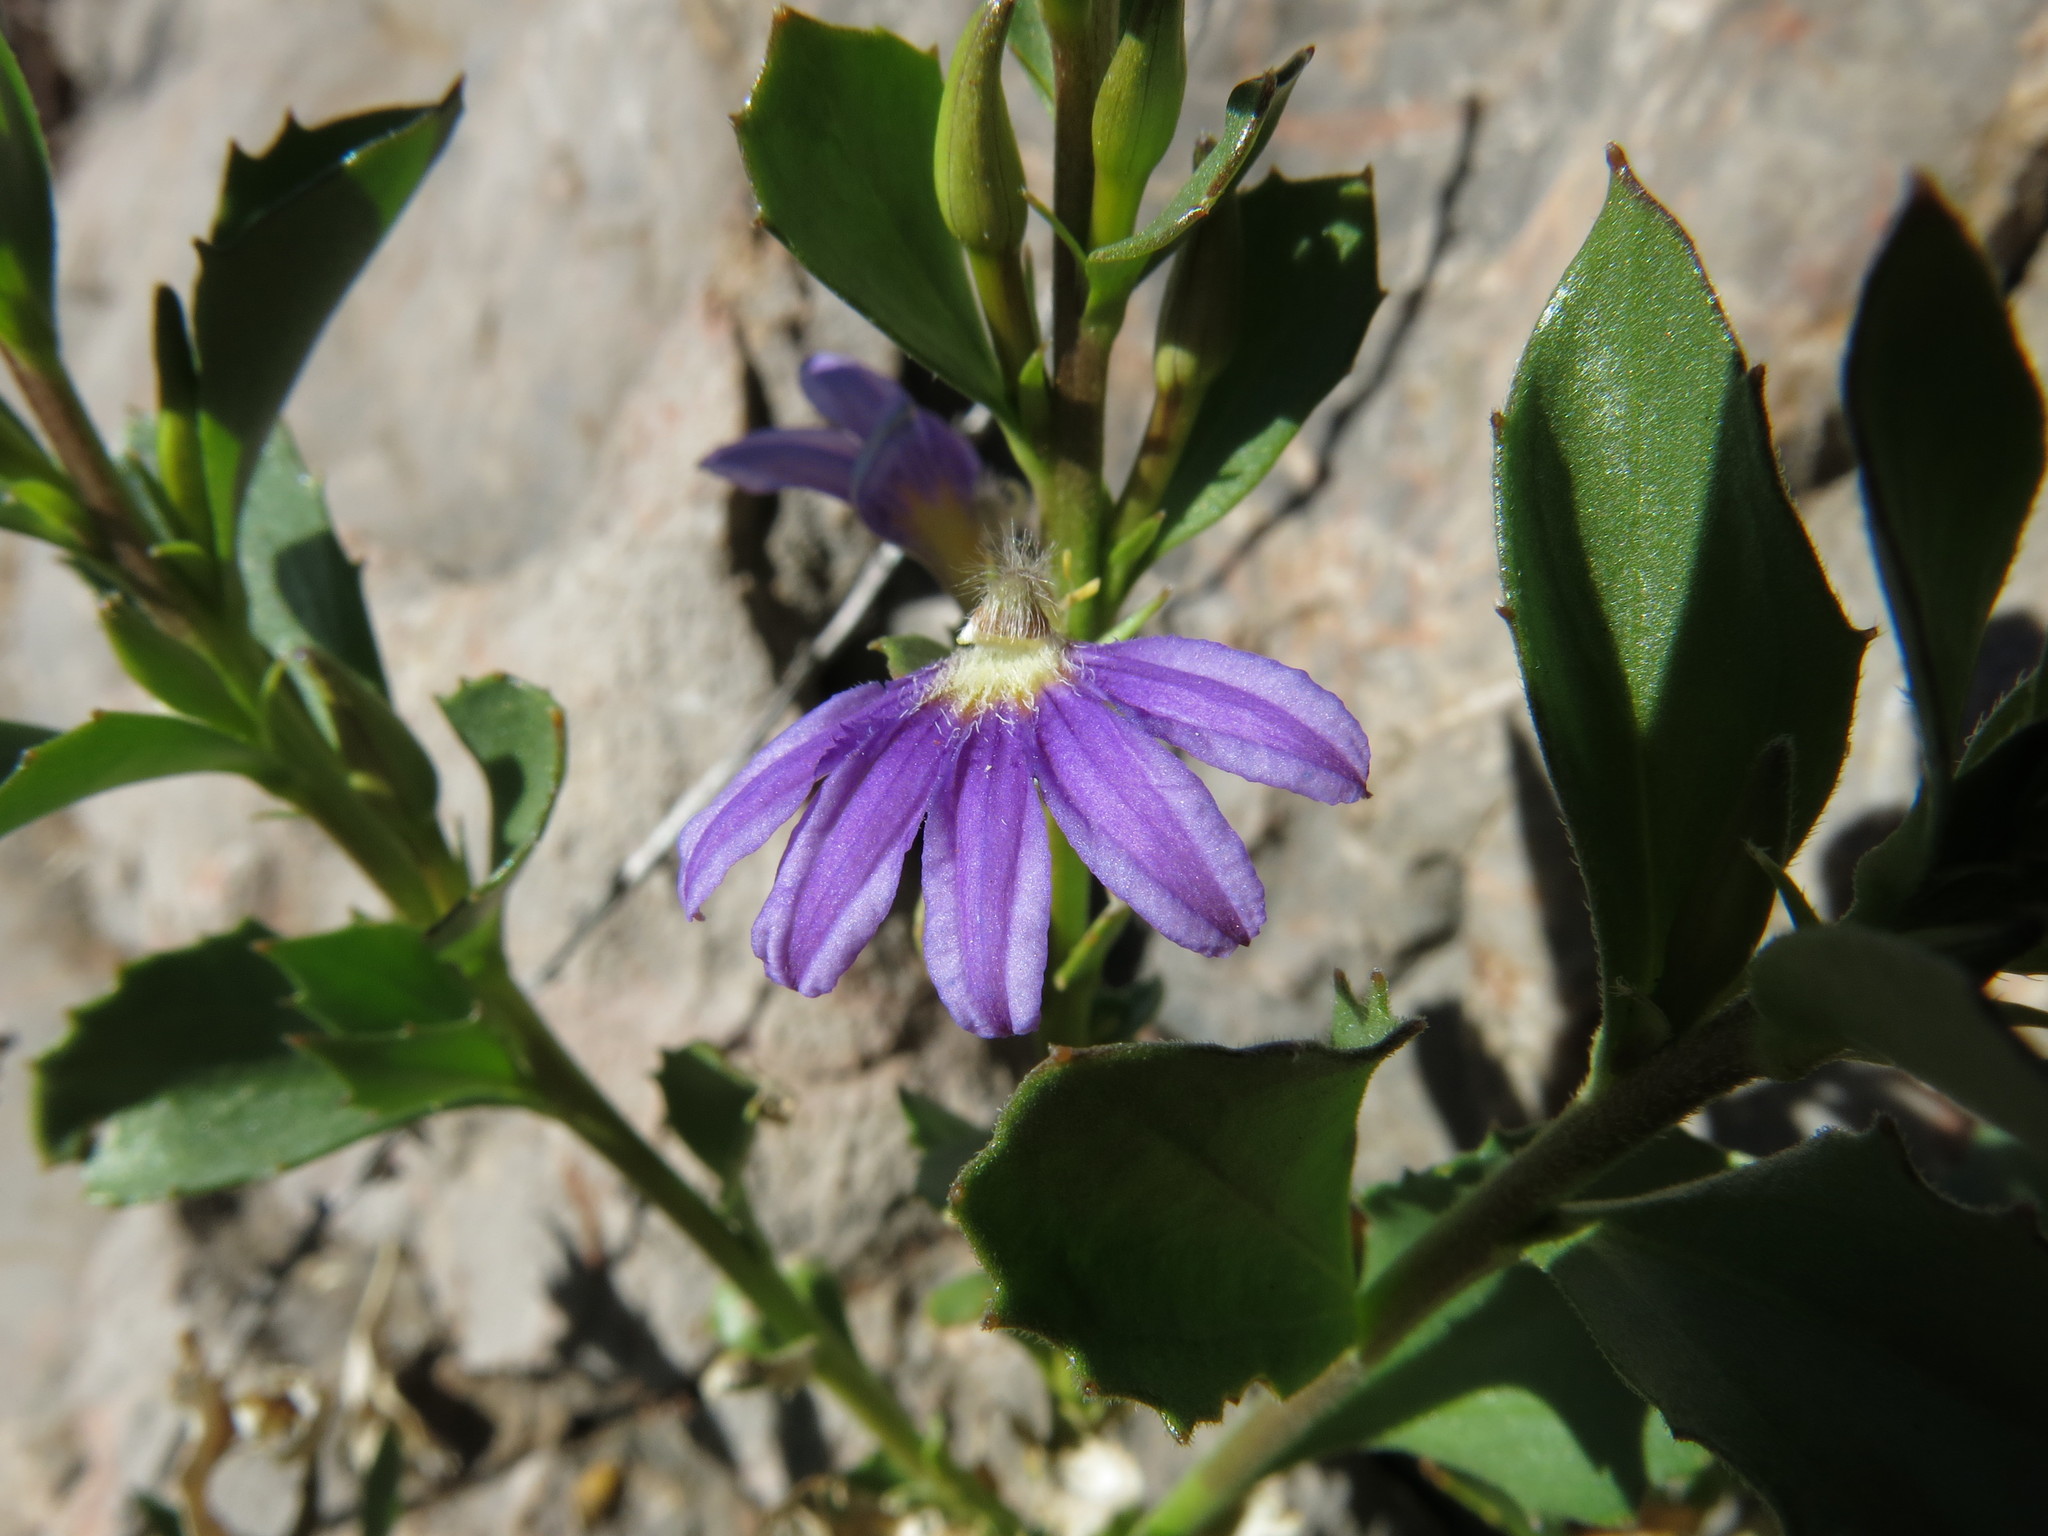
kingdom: Plantae
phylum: Tracheophyta
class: Magnoliopsida
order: Asterales
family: Goodeniaceae
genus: Scaevola
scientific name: Scaevola glabrata
